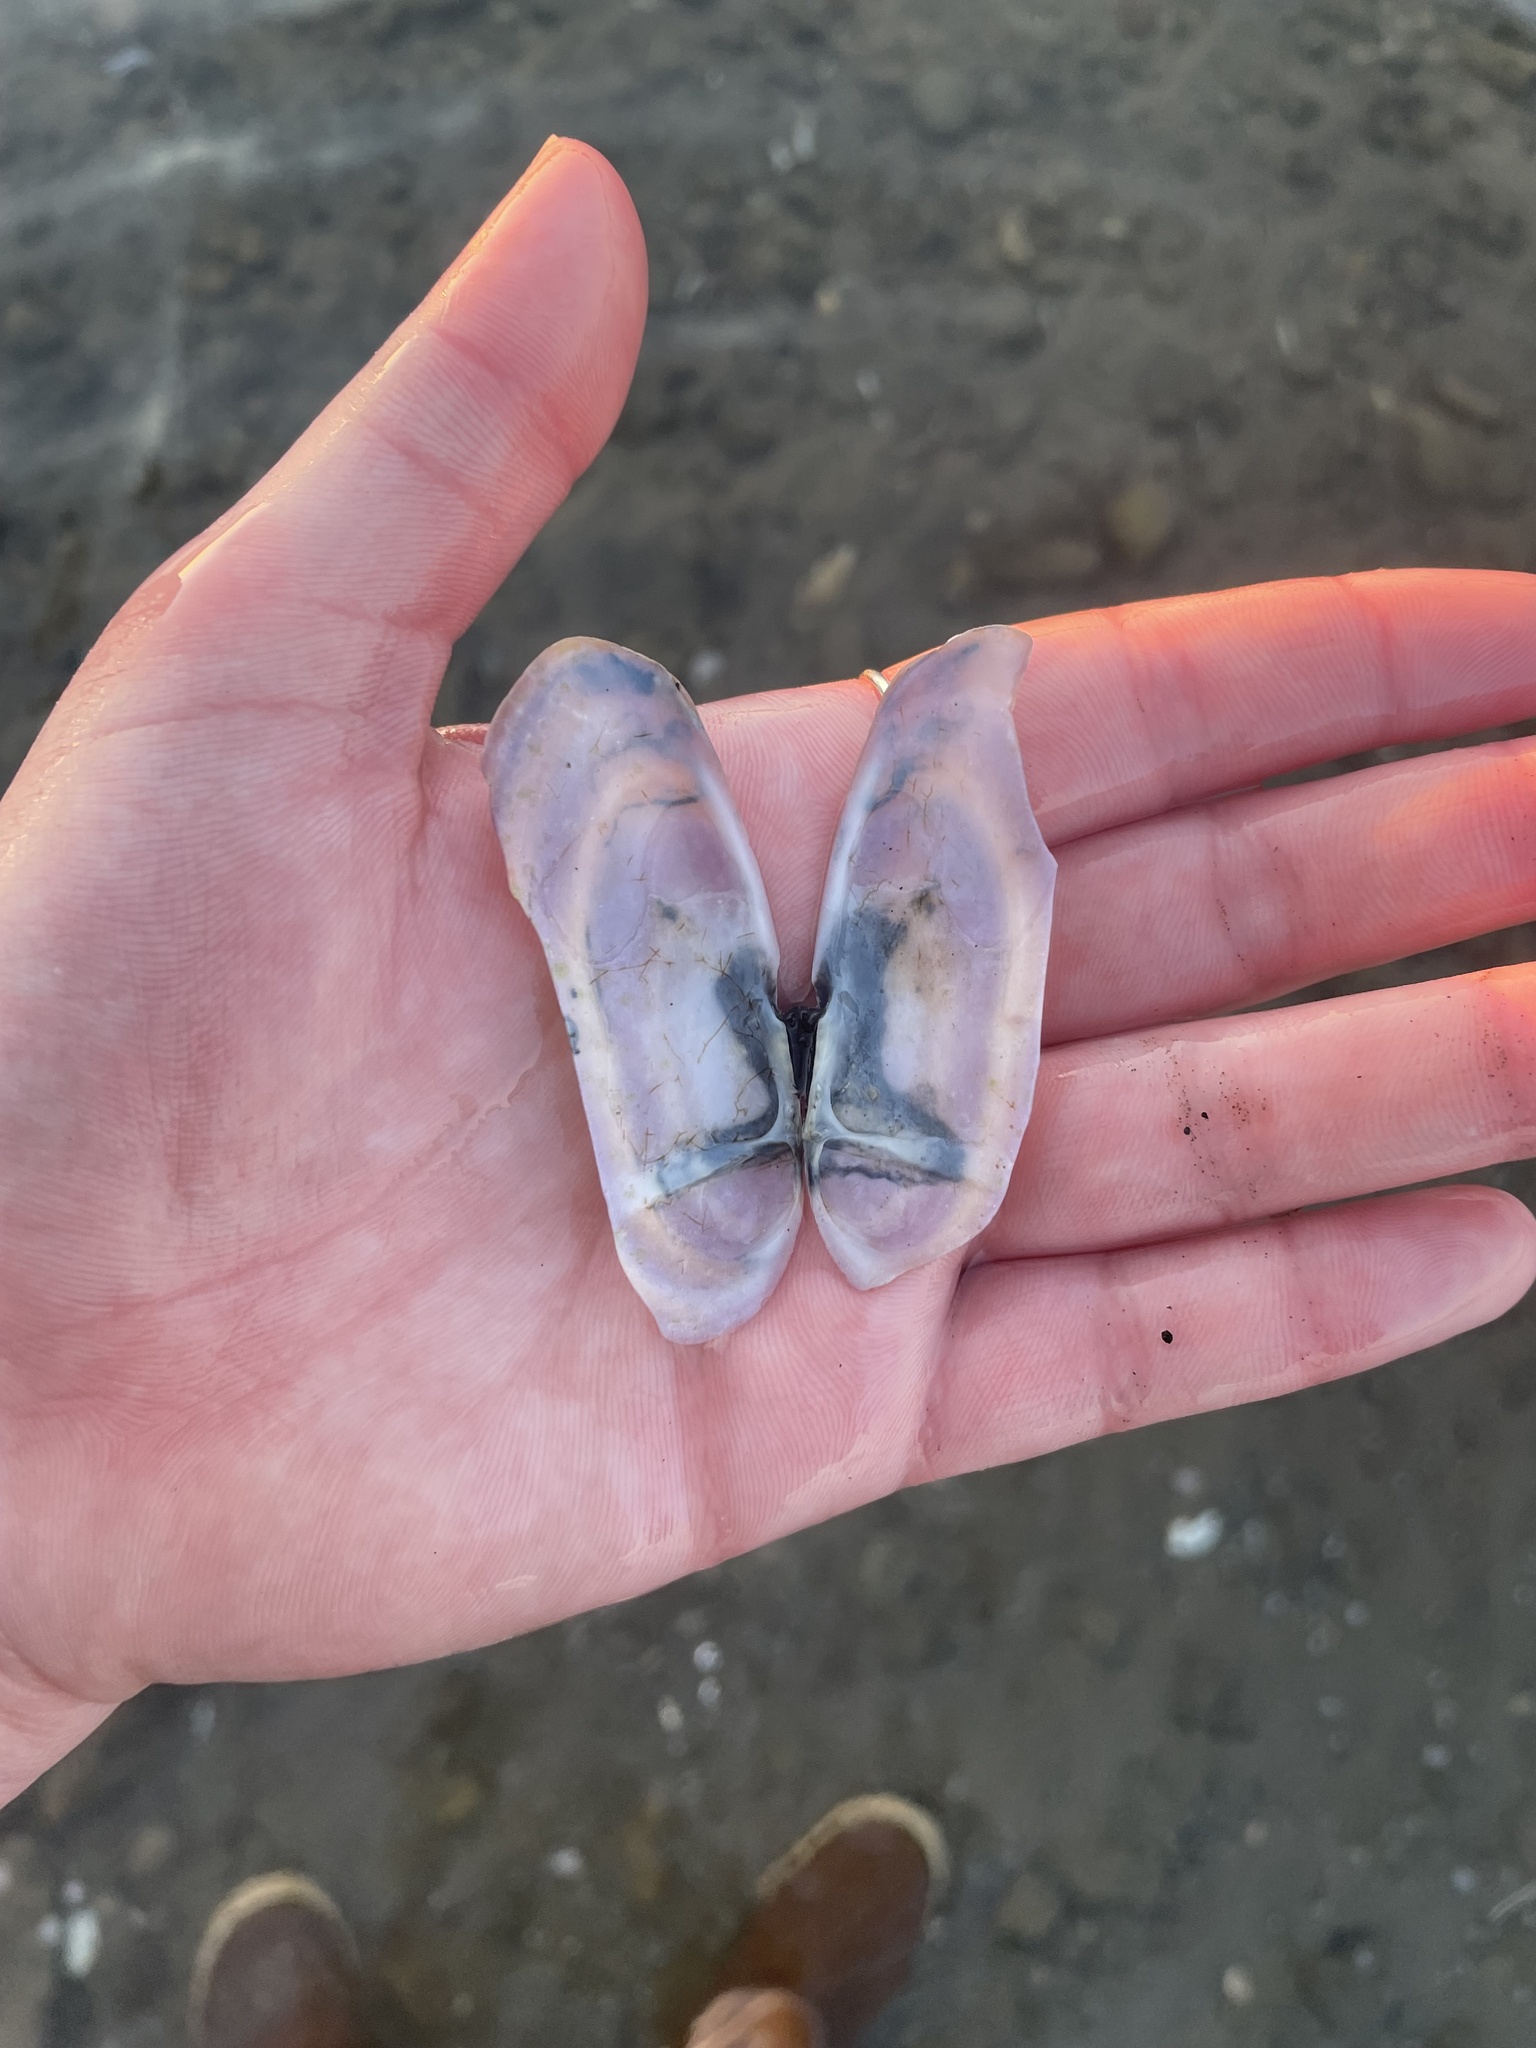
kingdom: Animalia
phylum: Mollusca
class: Bivalvia
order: Adapedonta
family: Pharidae
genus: Siliqua
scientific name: Siliqua costata
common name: Atlantic razor
